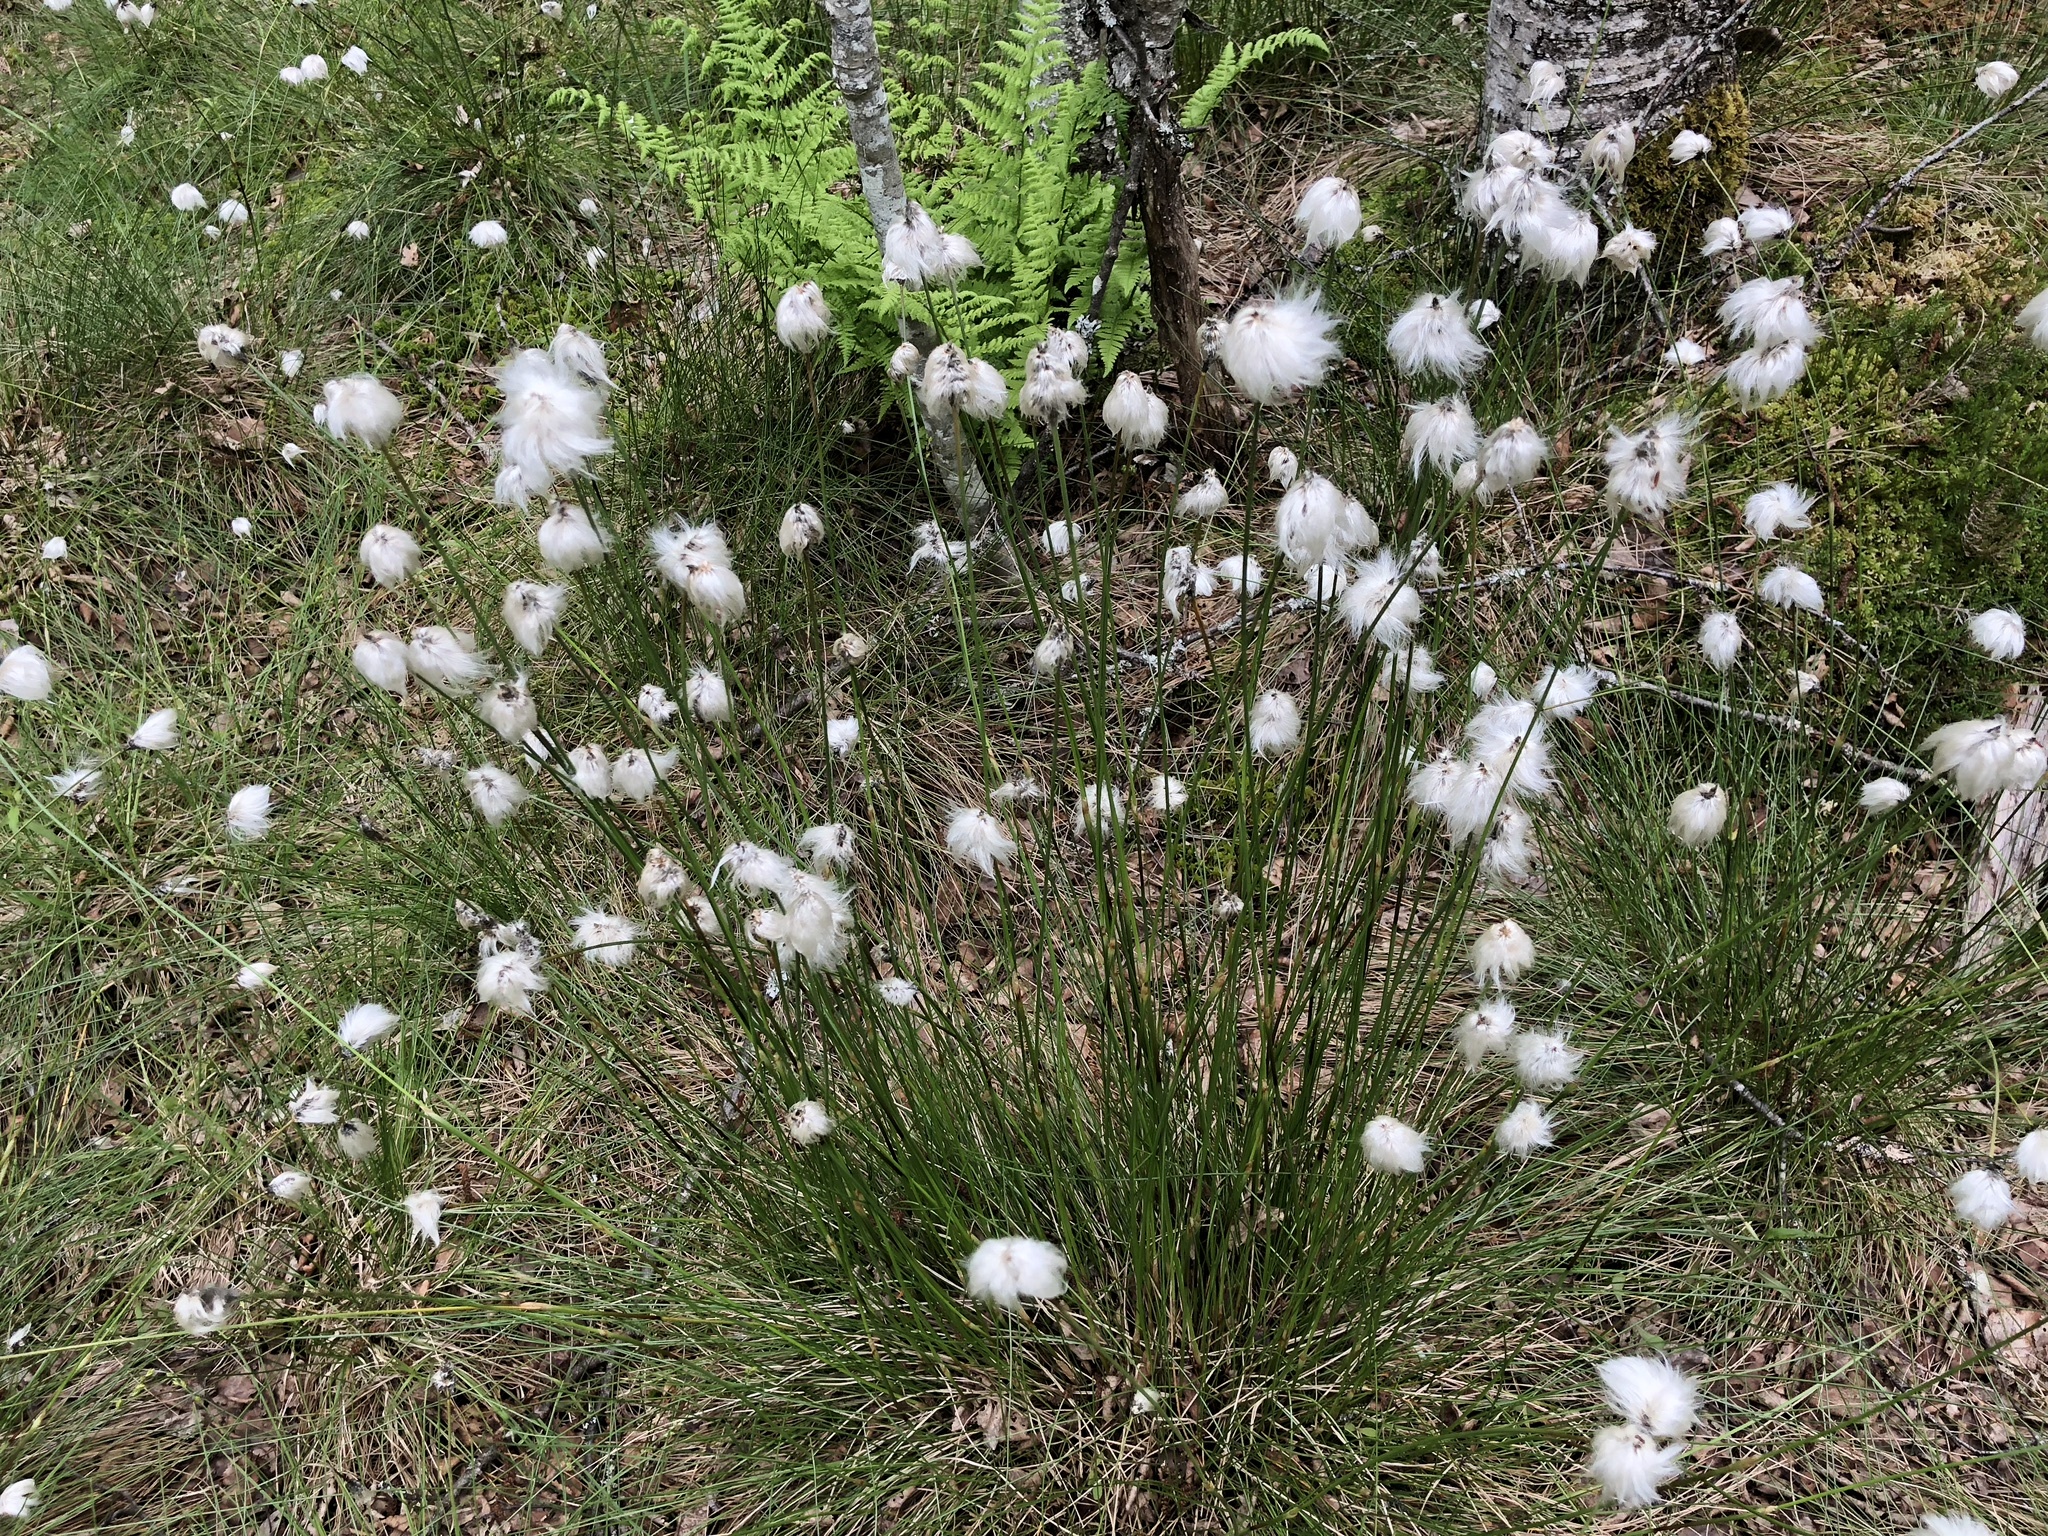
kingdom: Plantae
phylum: Tracheophyta
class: Liliopsida
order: Poales
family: Cyperaceae
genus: Eriophorum
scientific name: Eriophorum vaginatum
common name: Hare's-tail cottongrass
